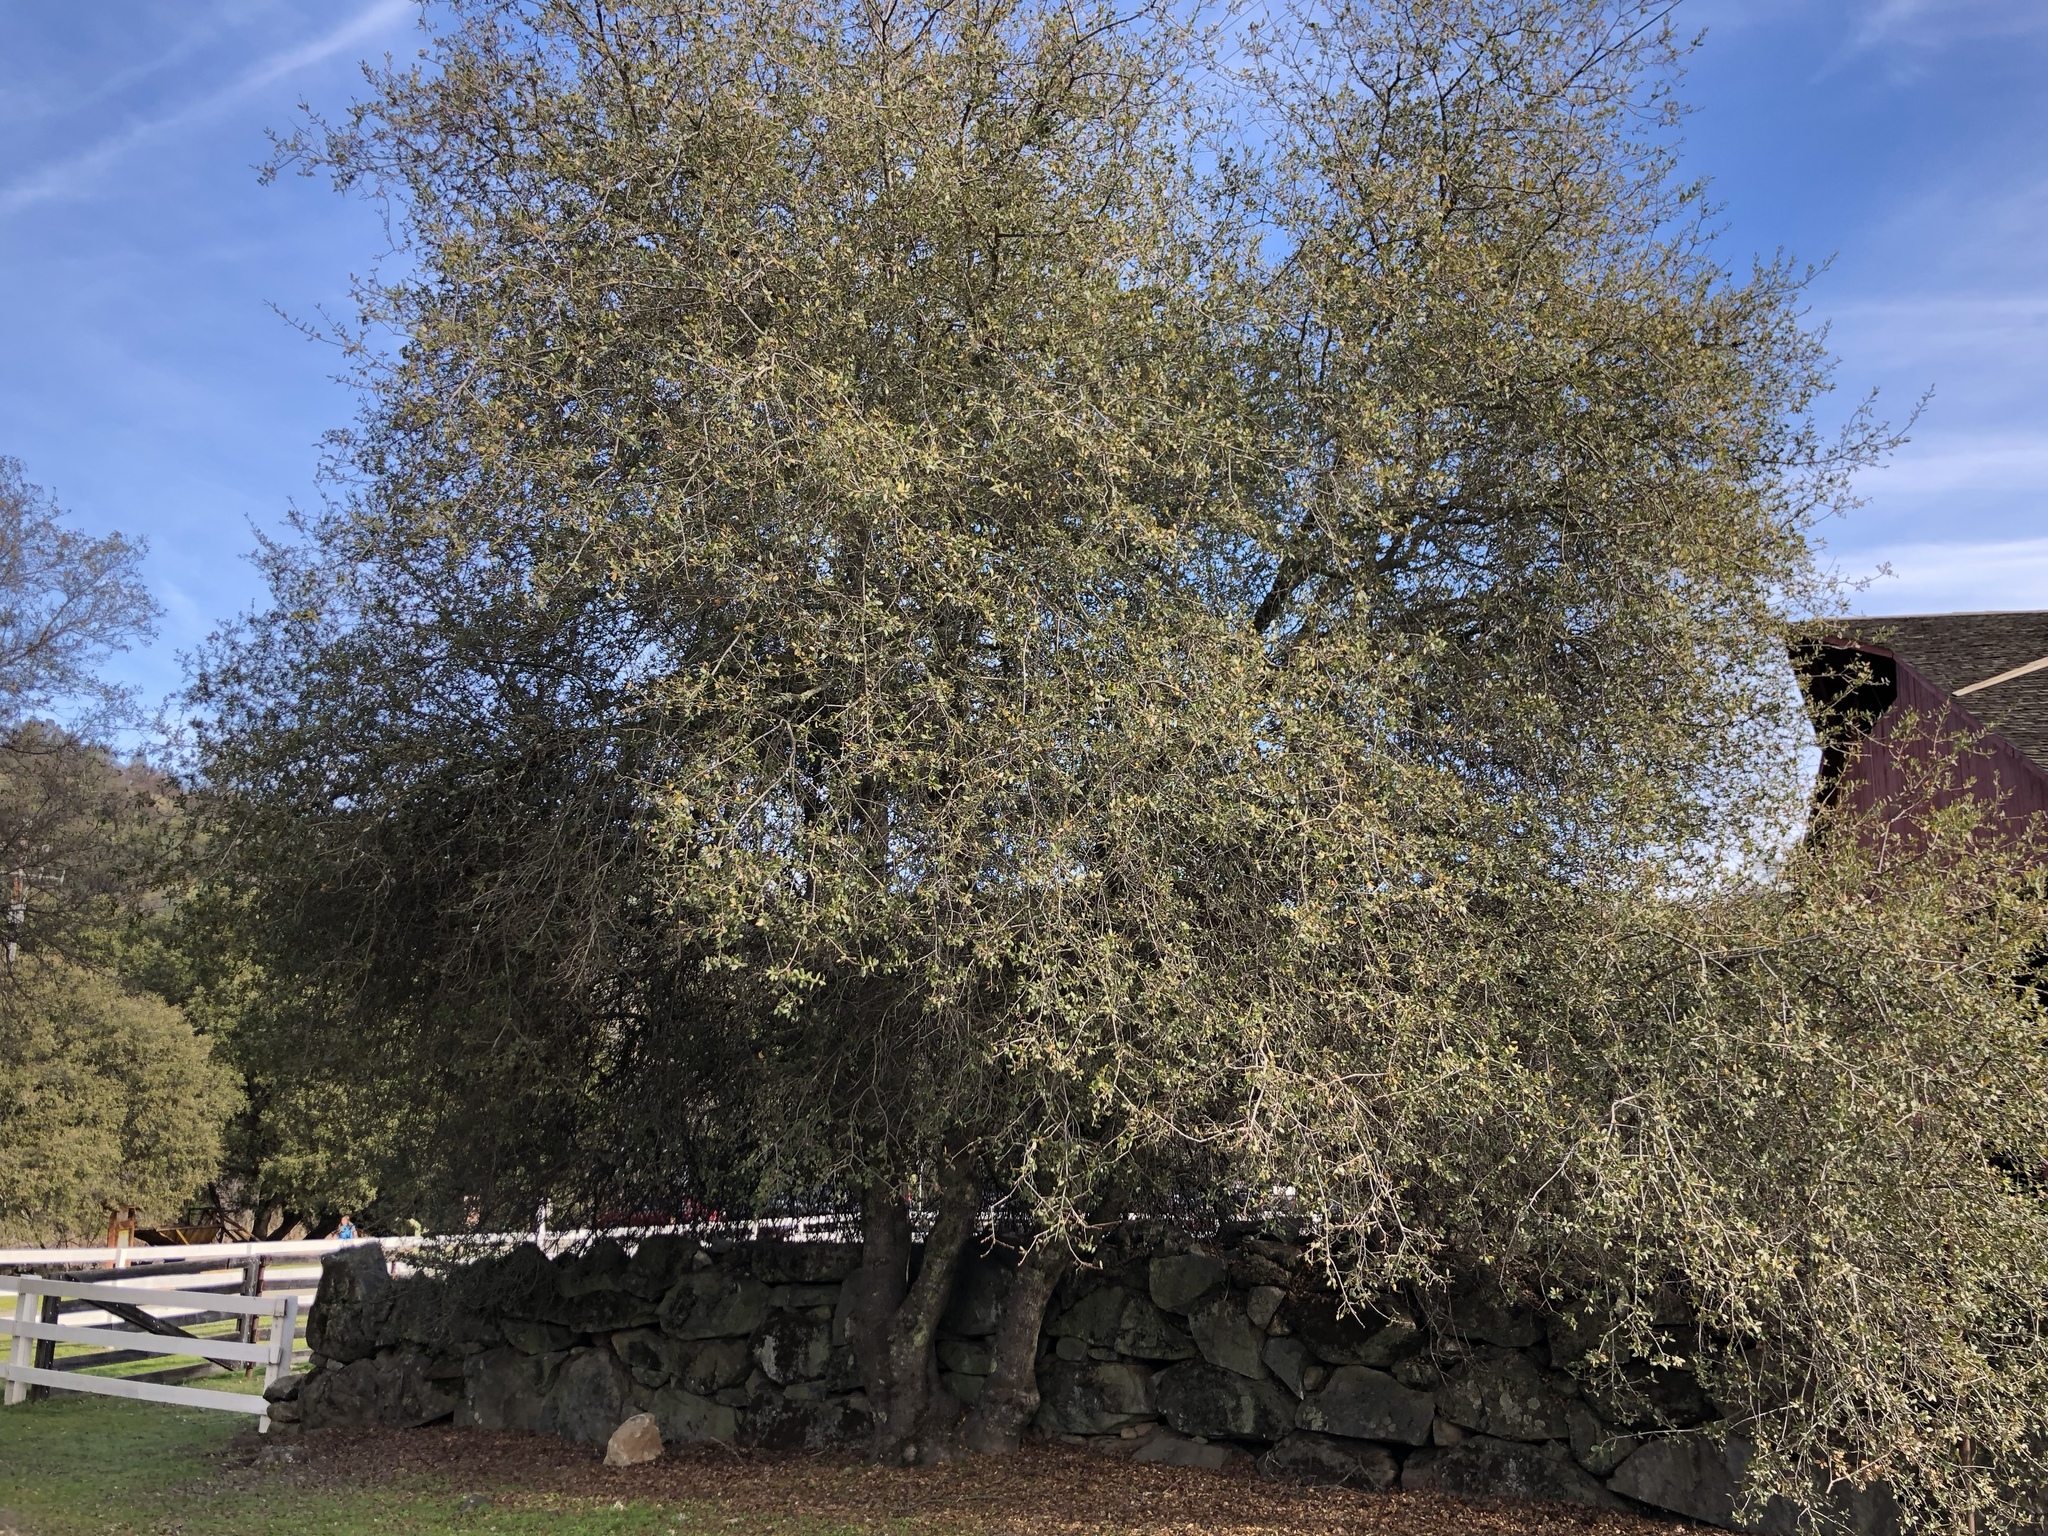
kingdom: Plantae
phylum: Tracheophyta
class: Magnoliopsida
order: Fagales
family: Fagaceae
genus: Quercus
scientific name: Quercus wislizeni
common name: Interior live oak
